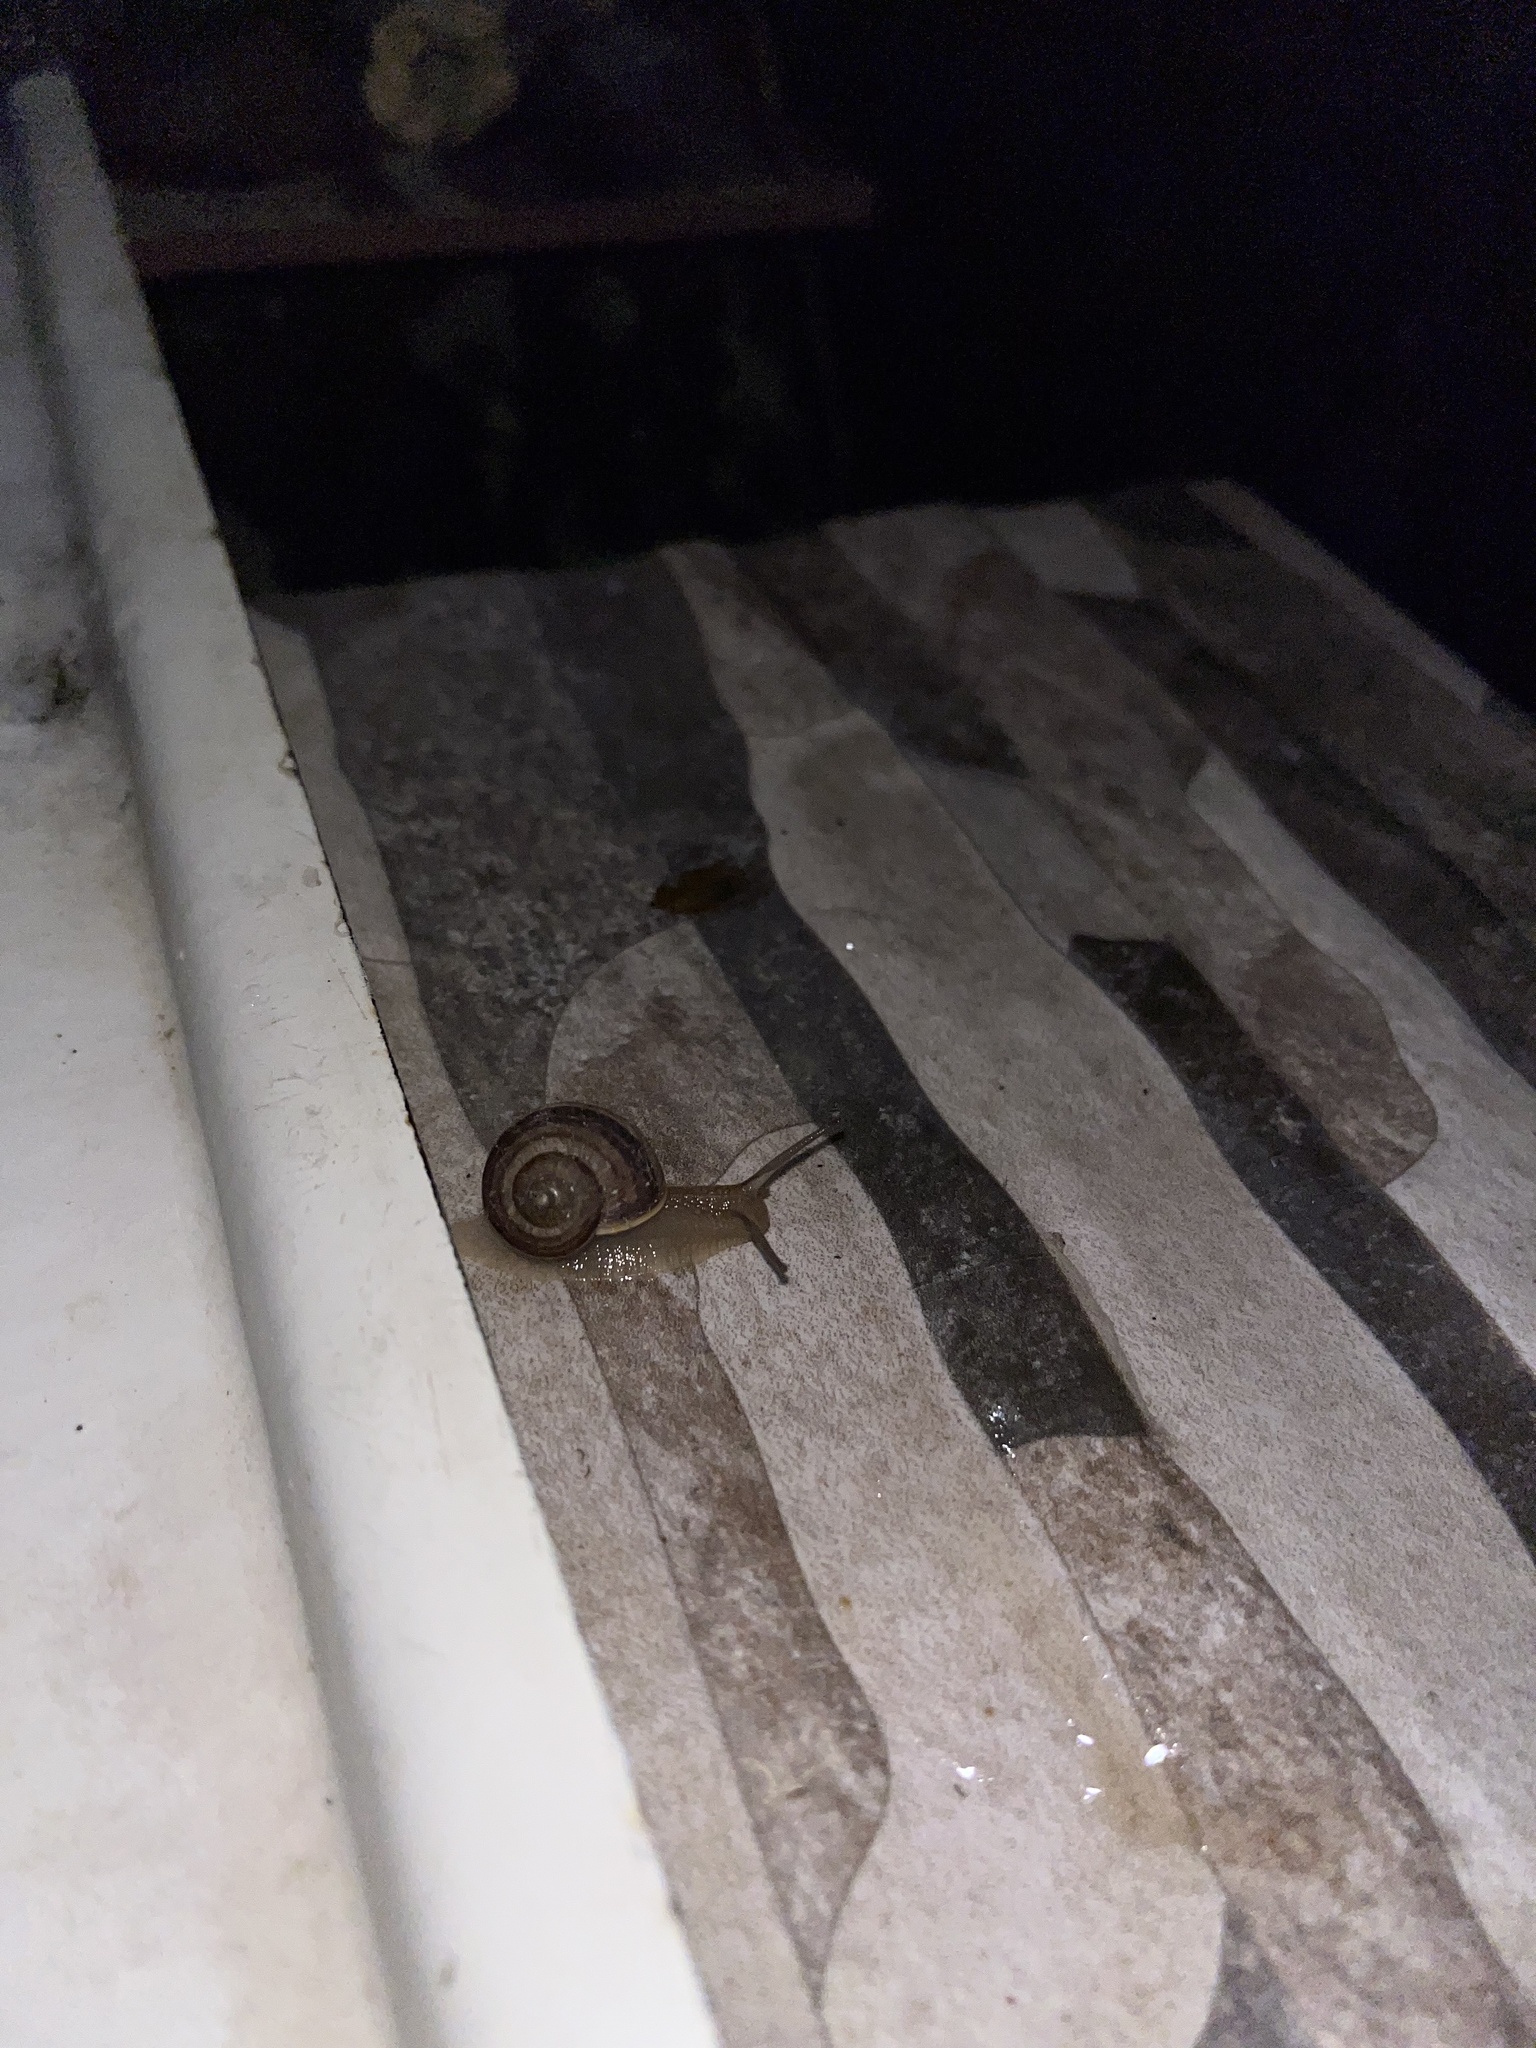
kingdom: Animalia
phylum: Mollusca
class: Gastropoda
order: Stylommatophora
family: Helicidae
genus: Helix
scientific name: Helix lucorum
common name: Turkish snail
